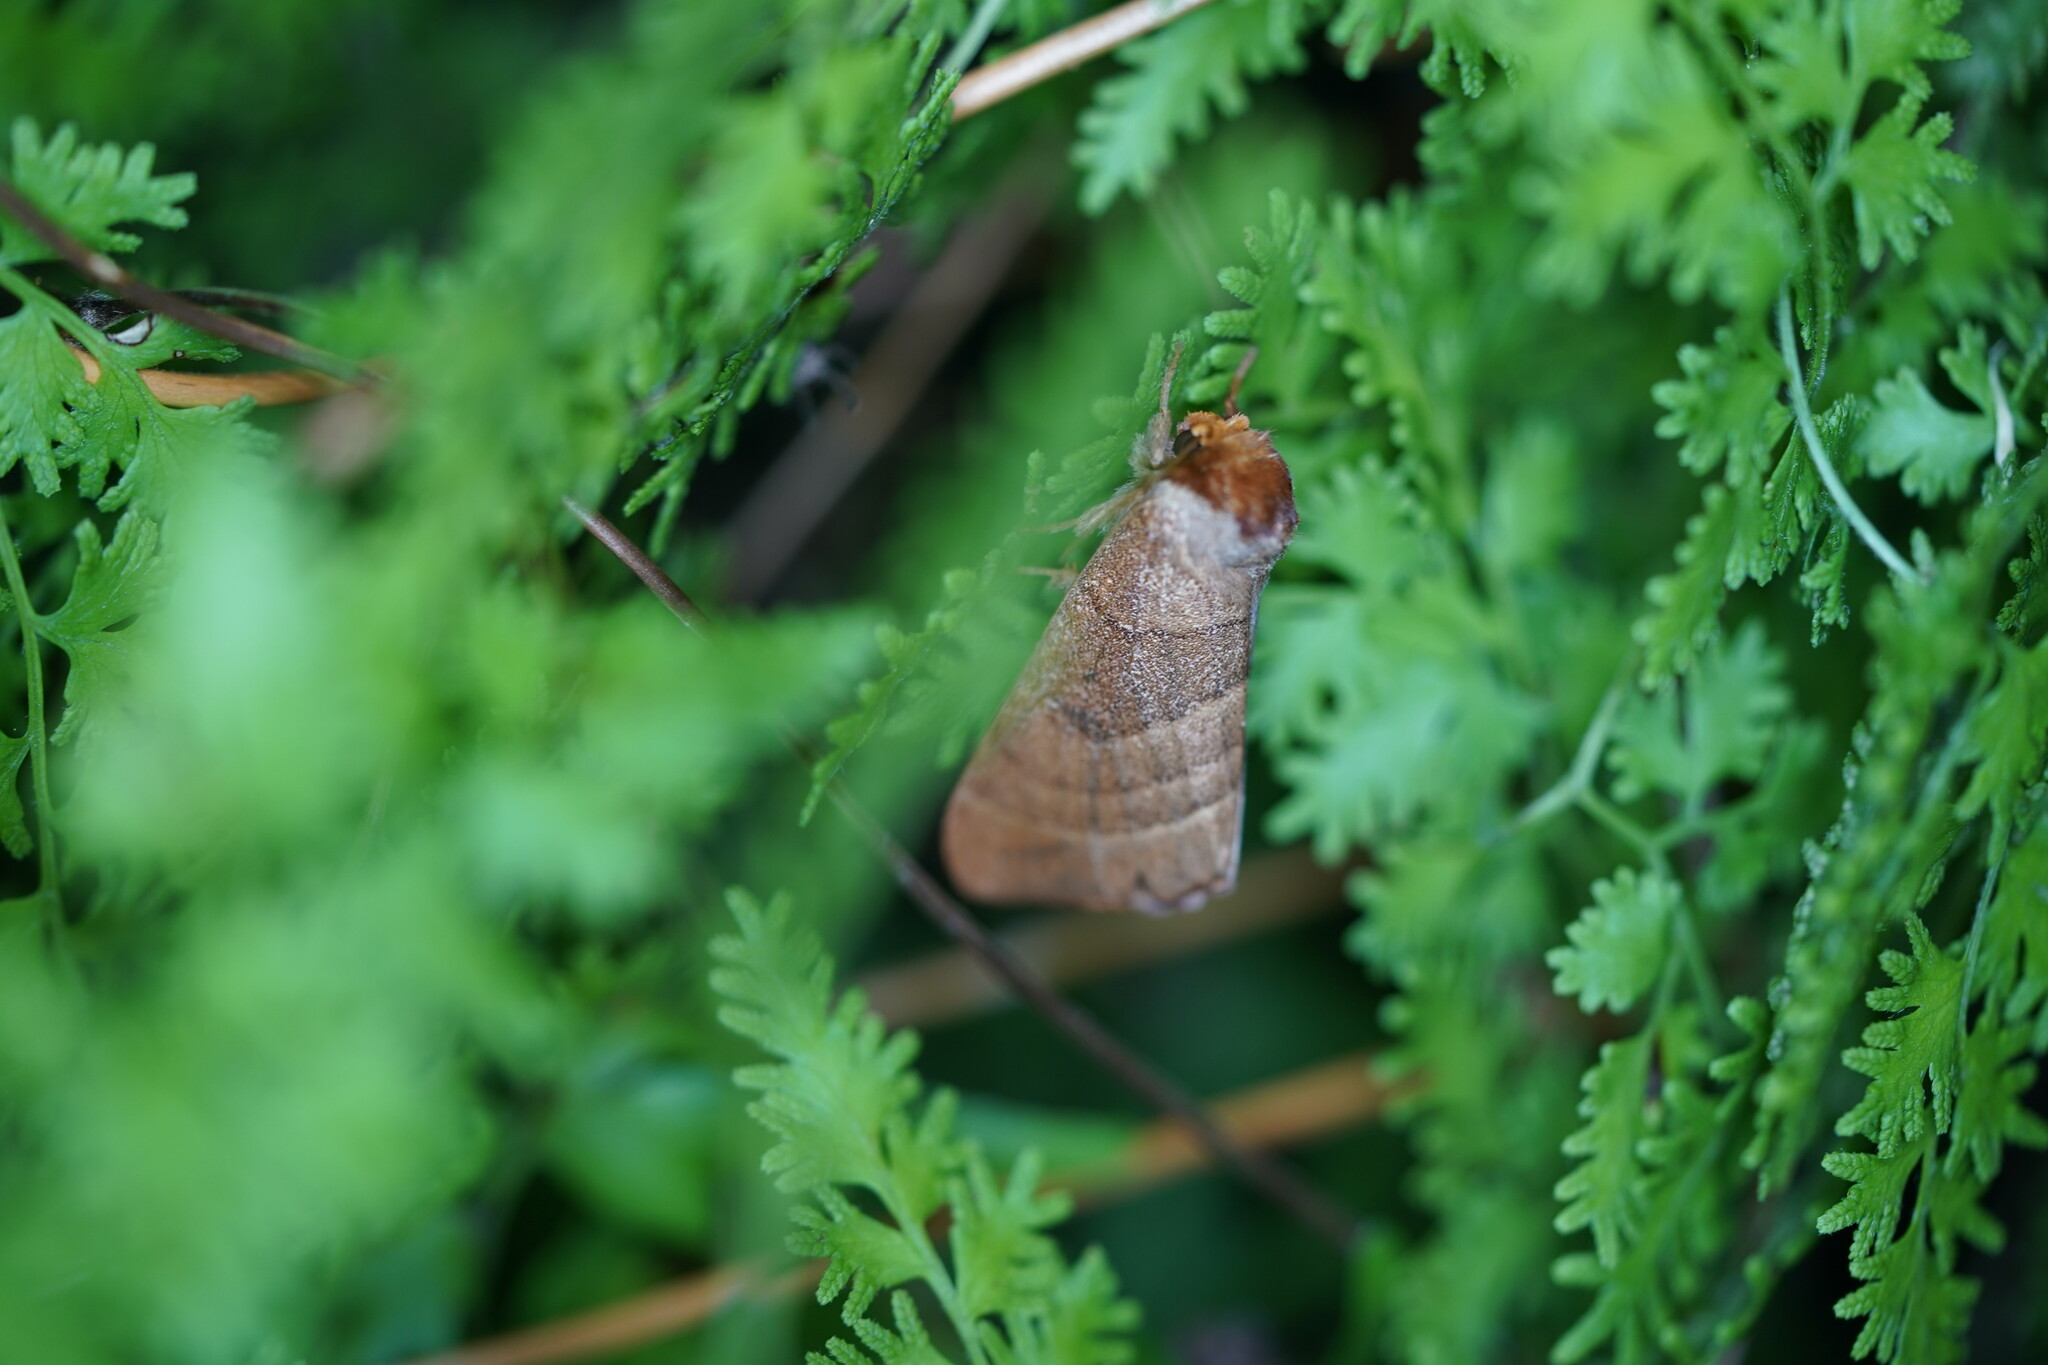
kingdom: Animalia
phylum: Arthropoda
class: Insecta
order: Lepidoptera
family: Notodontidae
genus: Datana
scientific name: Datana integerrima
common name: Walnut caterpillar
